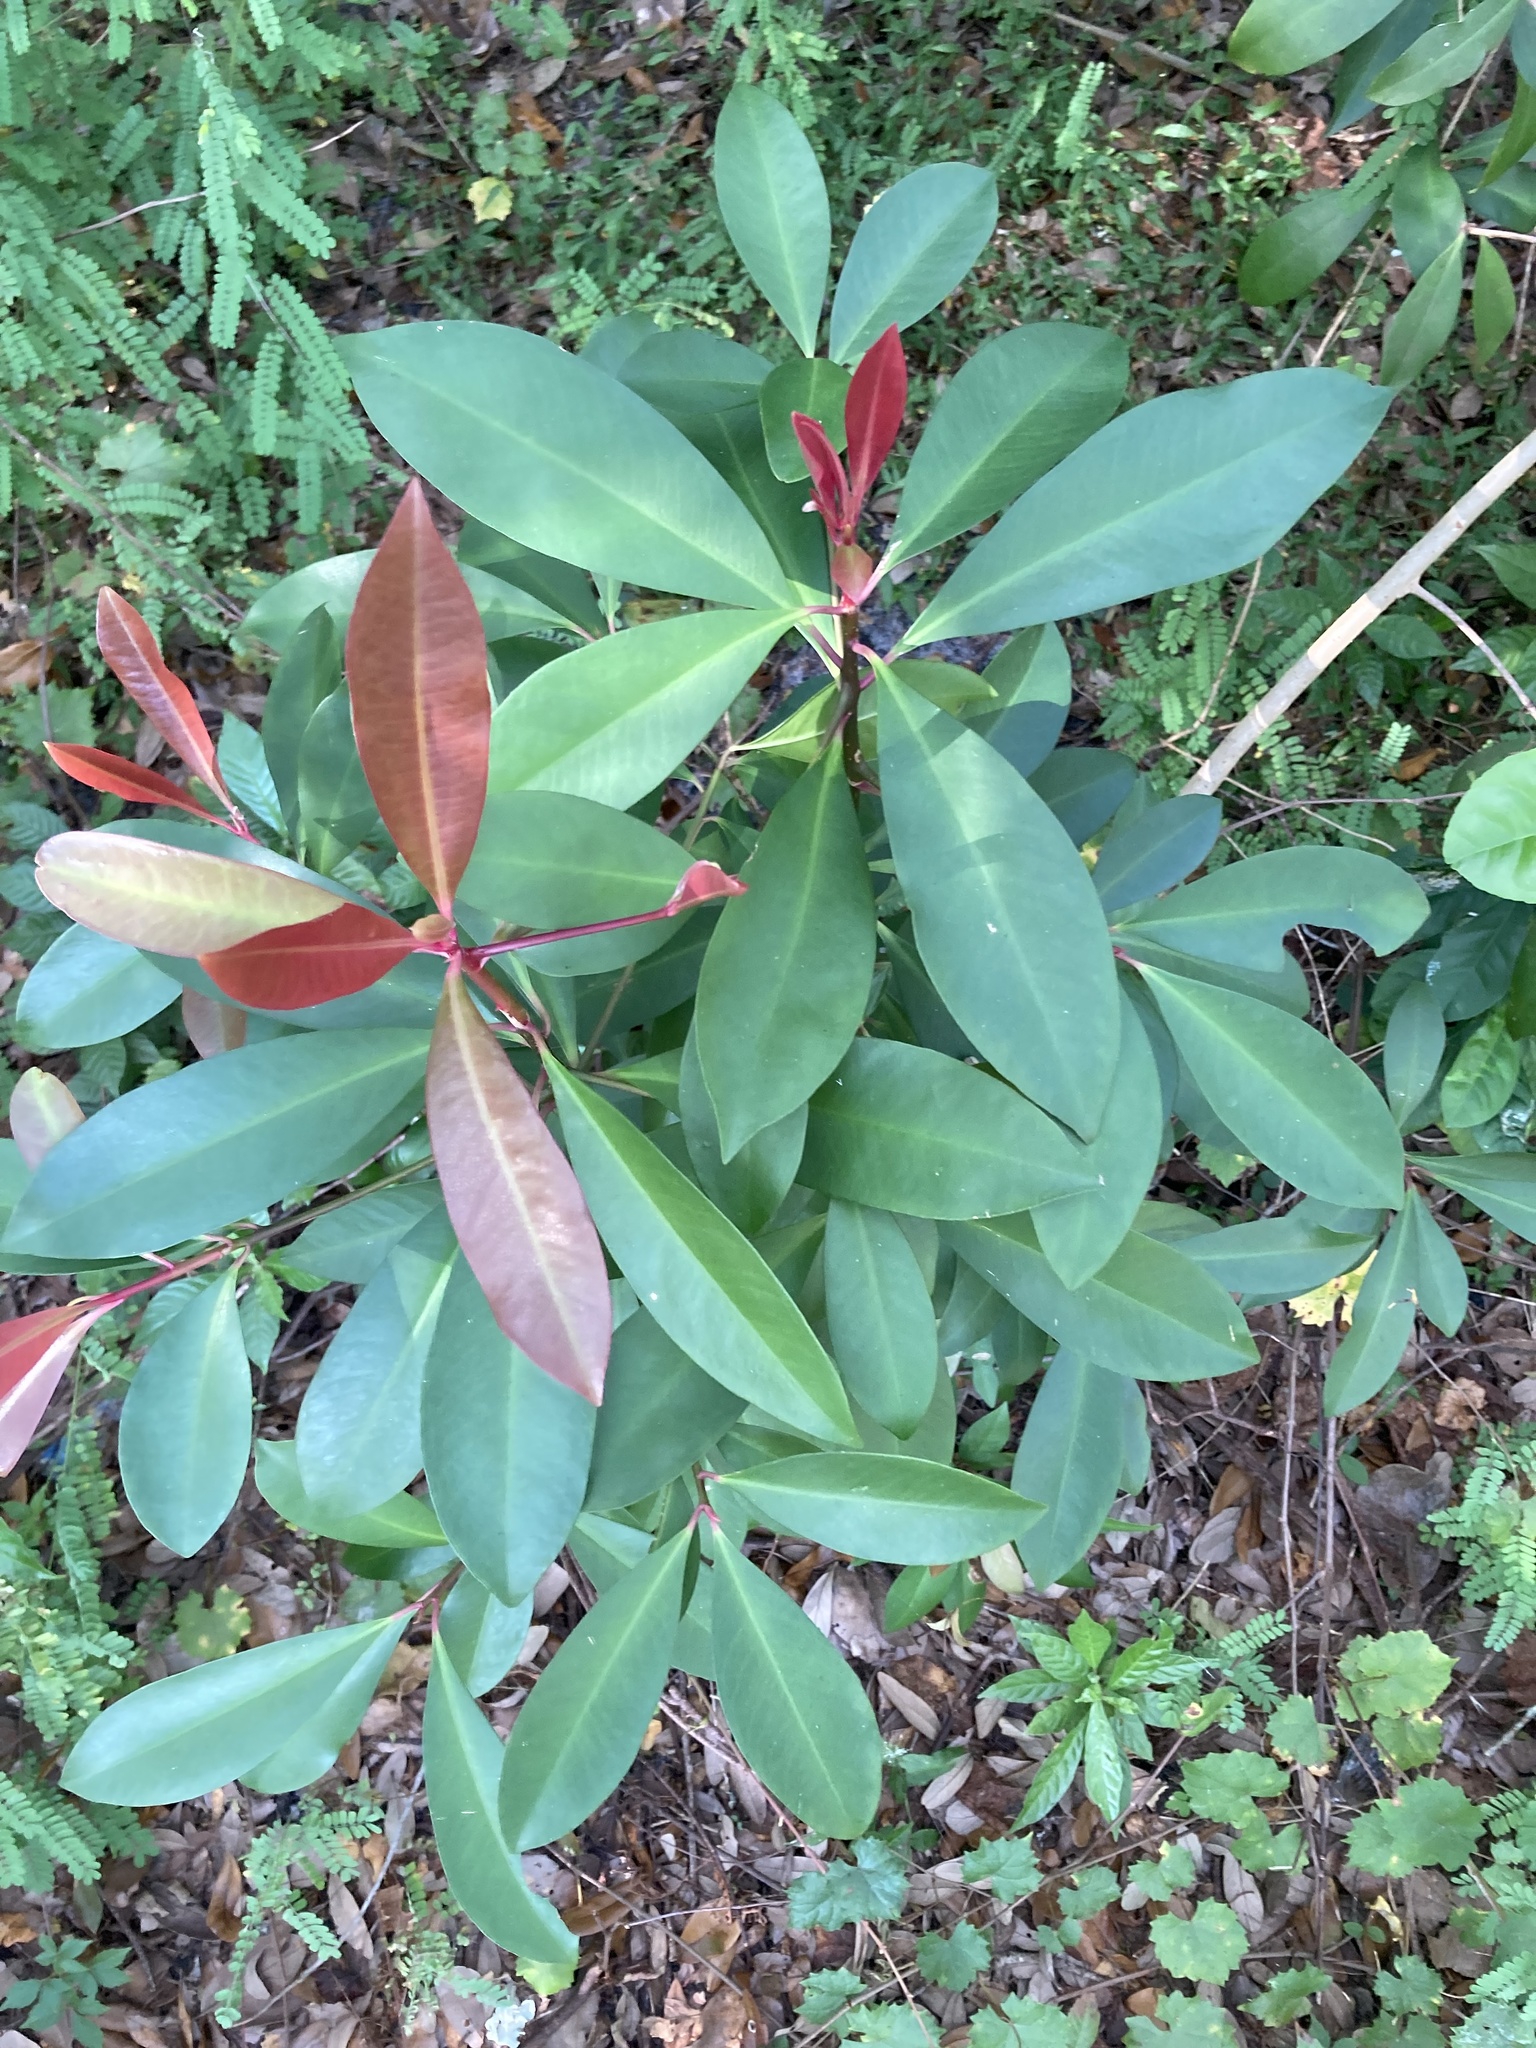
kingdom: Plantae
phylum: Tracheophyta
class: Magnoliopsida
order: Ericales
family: Primulaceae
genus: Ardisia
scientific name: Ardisia elliptica
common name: Shoebutton
